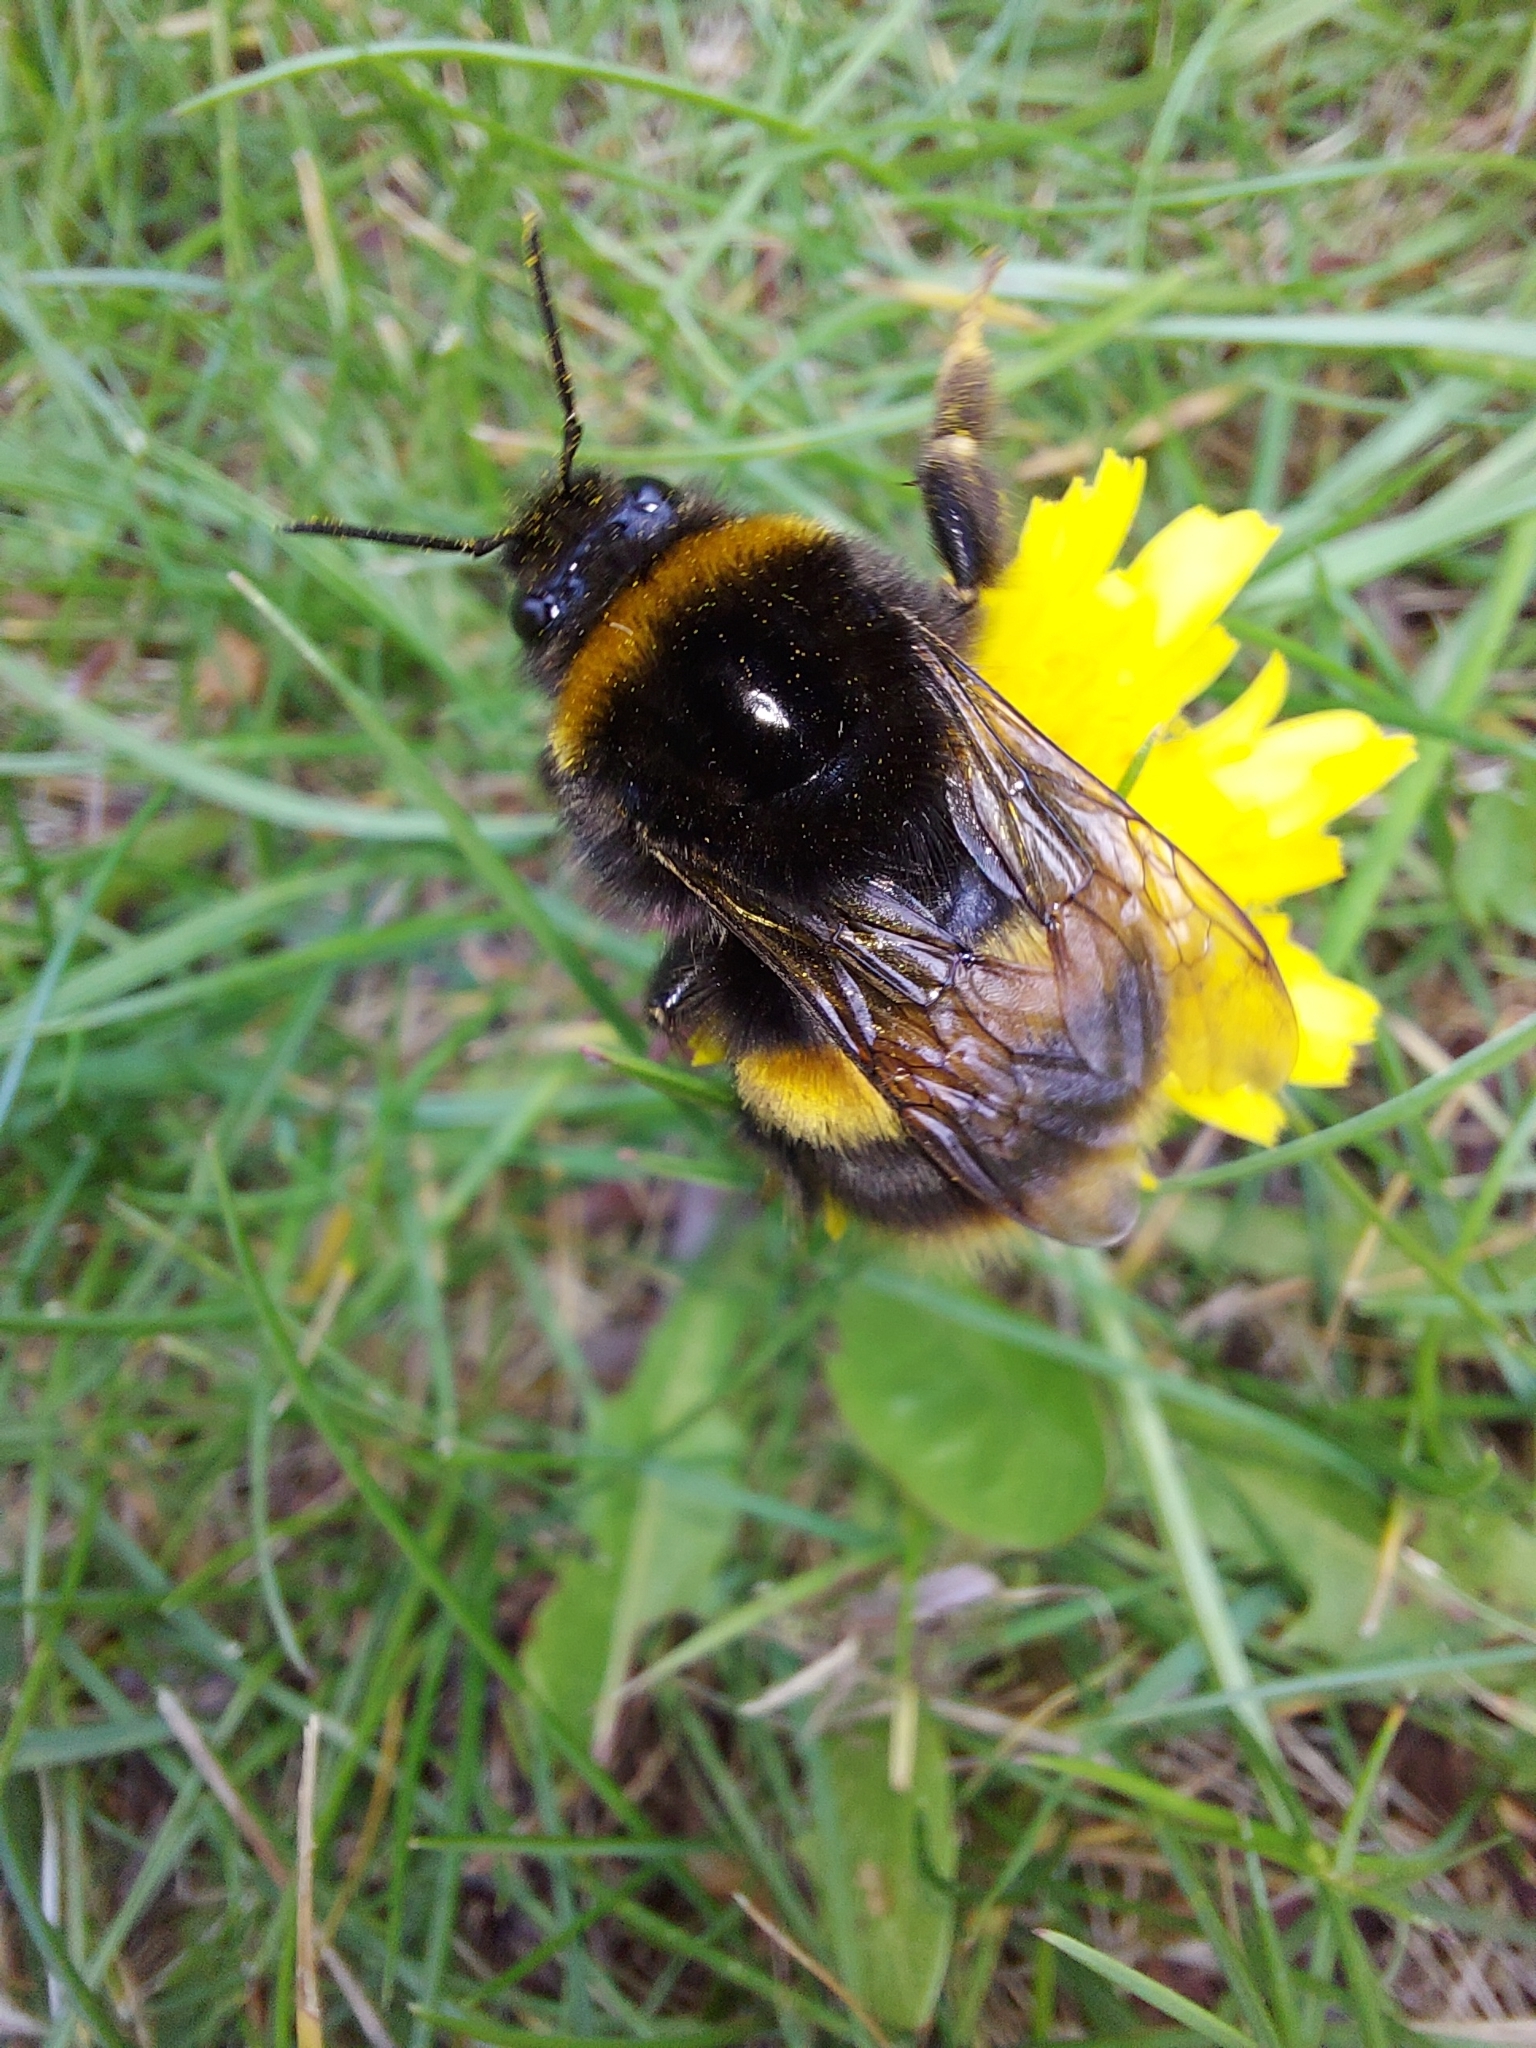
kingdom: Animalia
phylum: Arthropoda
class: Insecta
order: Hymenoptera
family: Apidae
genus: Bombus
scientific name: Bombus terrestris
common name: Buff-tailed bumblebee
